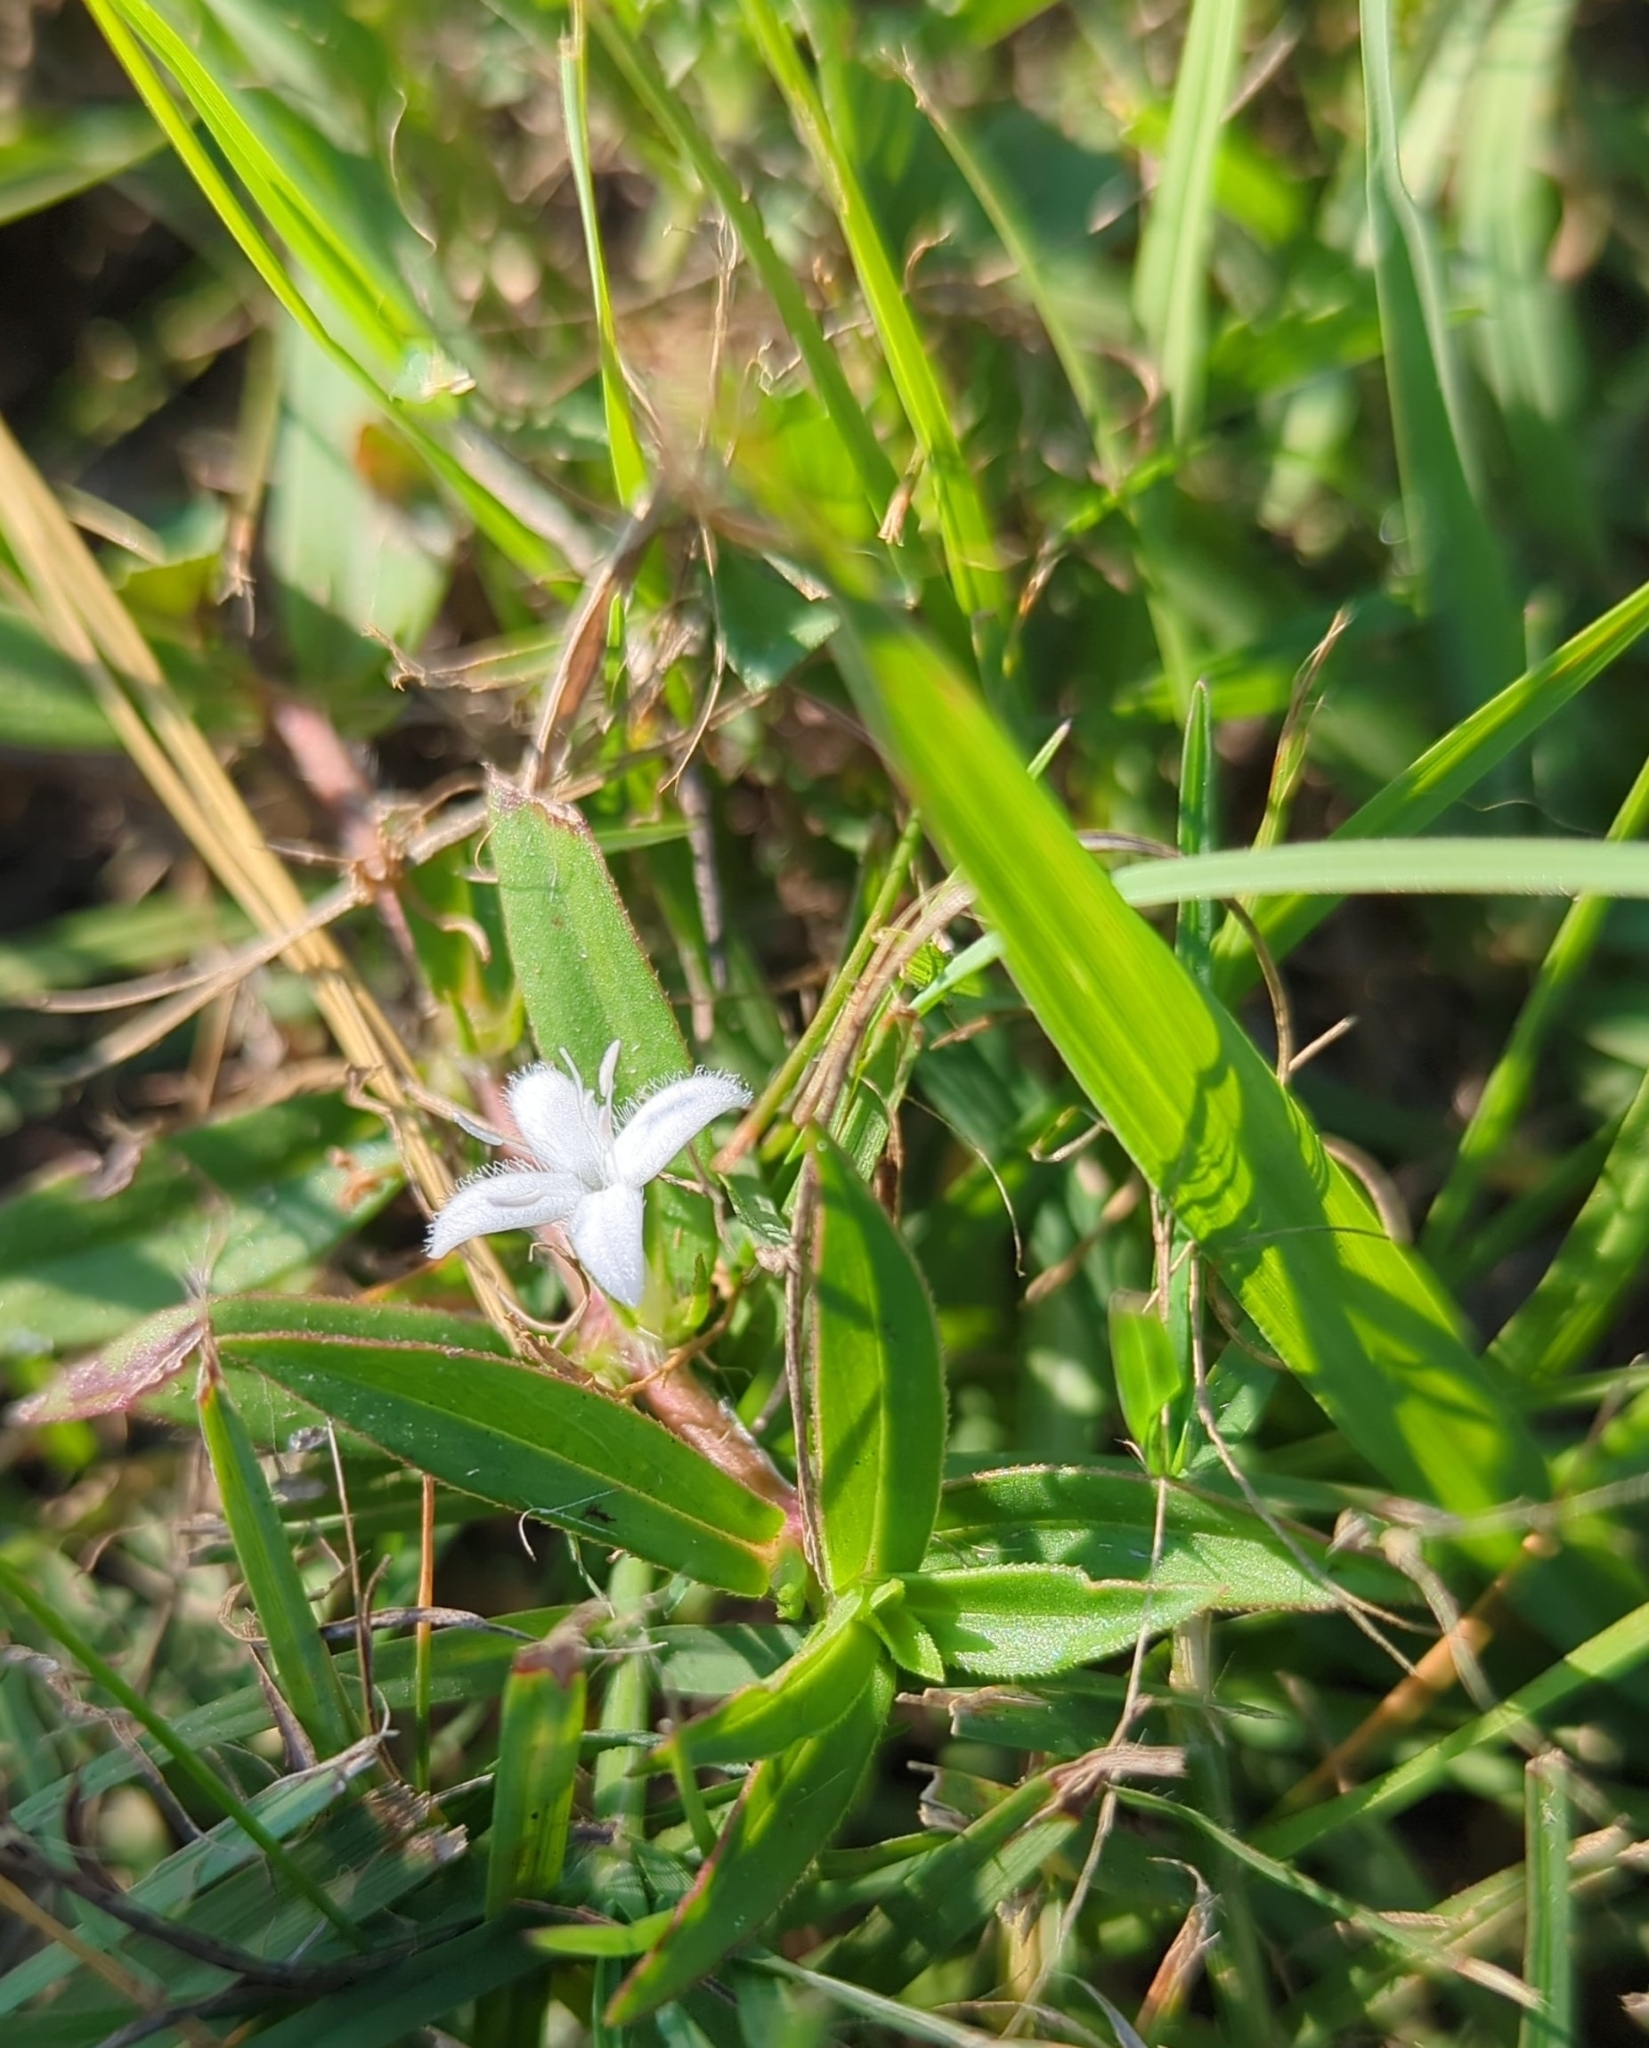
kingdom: Plantae
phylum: Tracheophyta
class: Magnoliopsida
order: Gentianales
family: Rubiaceae
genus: Diodia
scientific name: Diodia virginiana
